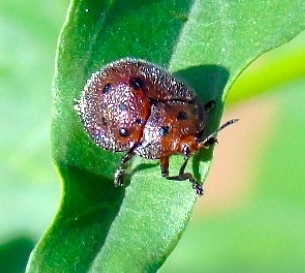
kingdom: Animalia
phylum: Arthropoda
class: Insecta
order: Coleoptera
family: Chrysomelidae
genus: Chelymorpha
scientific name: Chelymorpha
